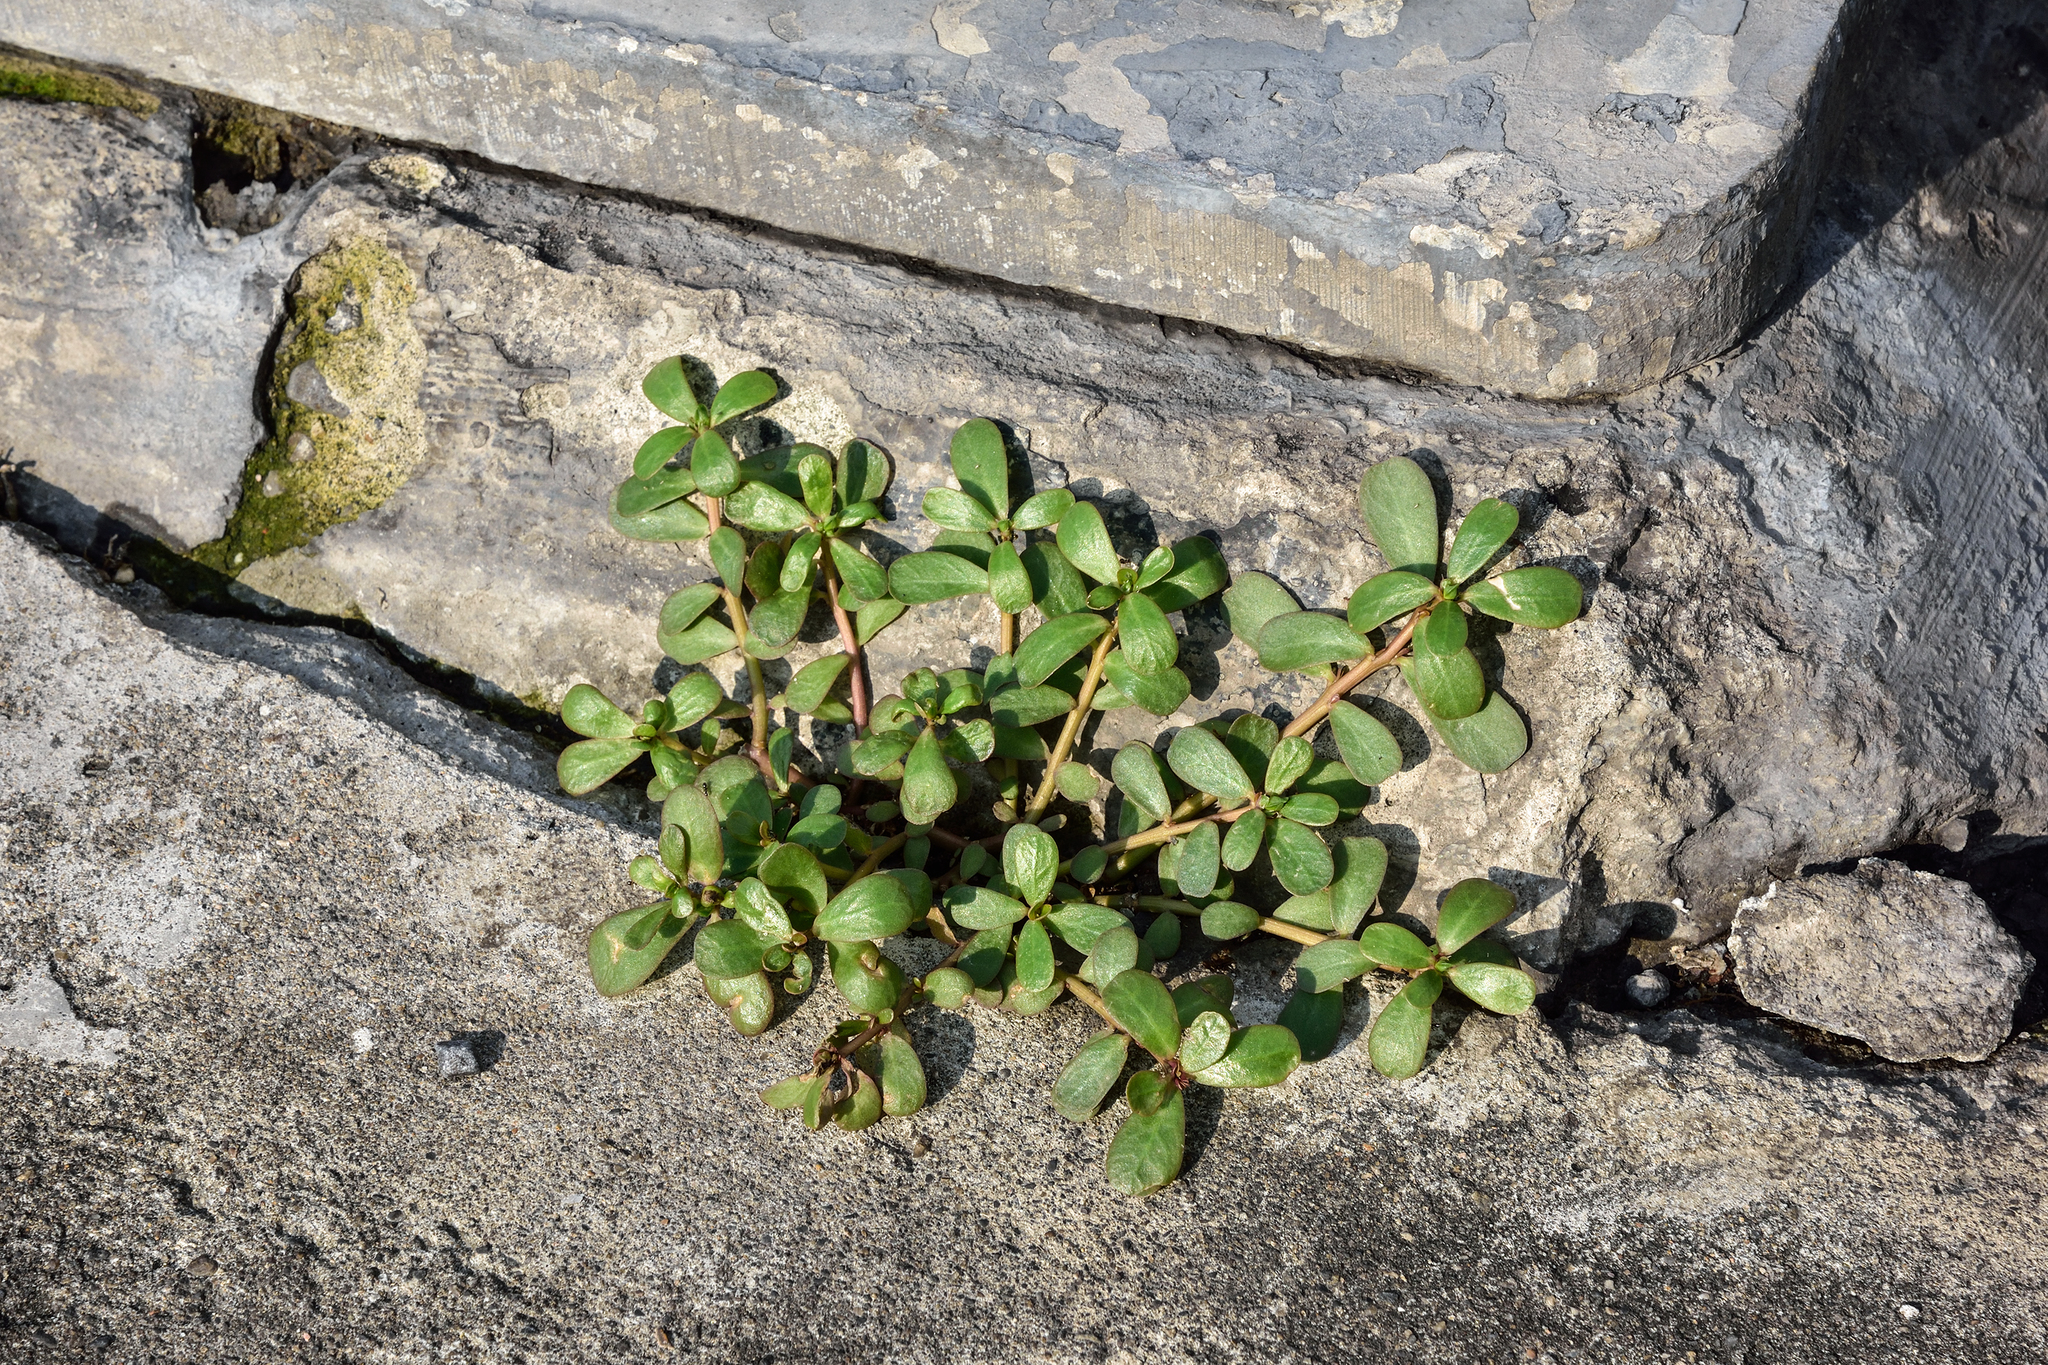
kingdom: Plantae
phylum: Tracheophyta
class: Magnoliopsida
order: Caryophyllales
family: Portulacaceae
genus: Portulaca
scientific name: Portulaca oleracea
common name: Common purslane
